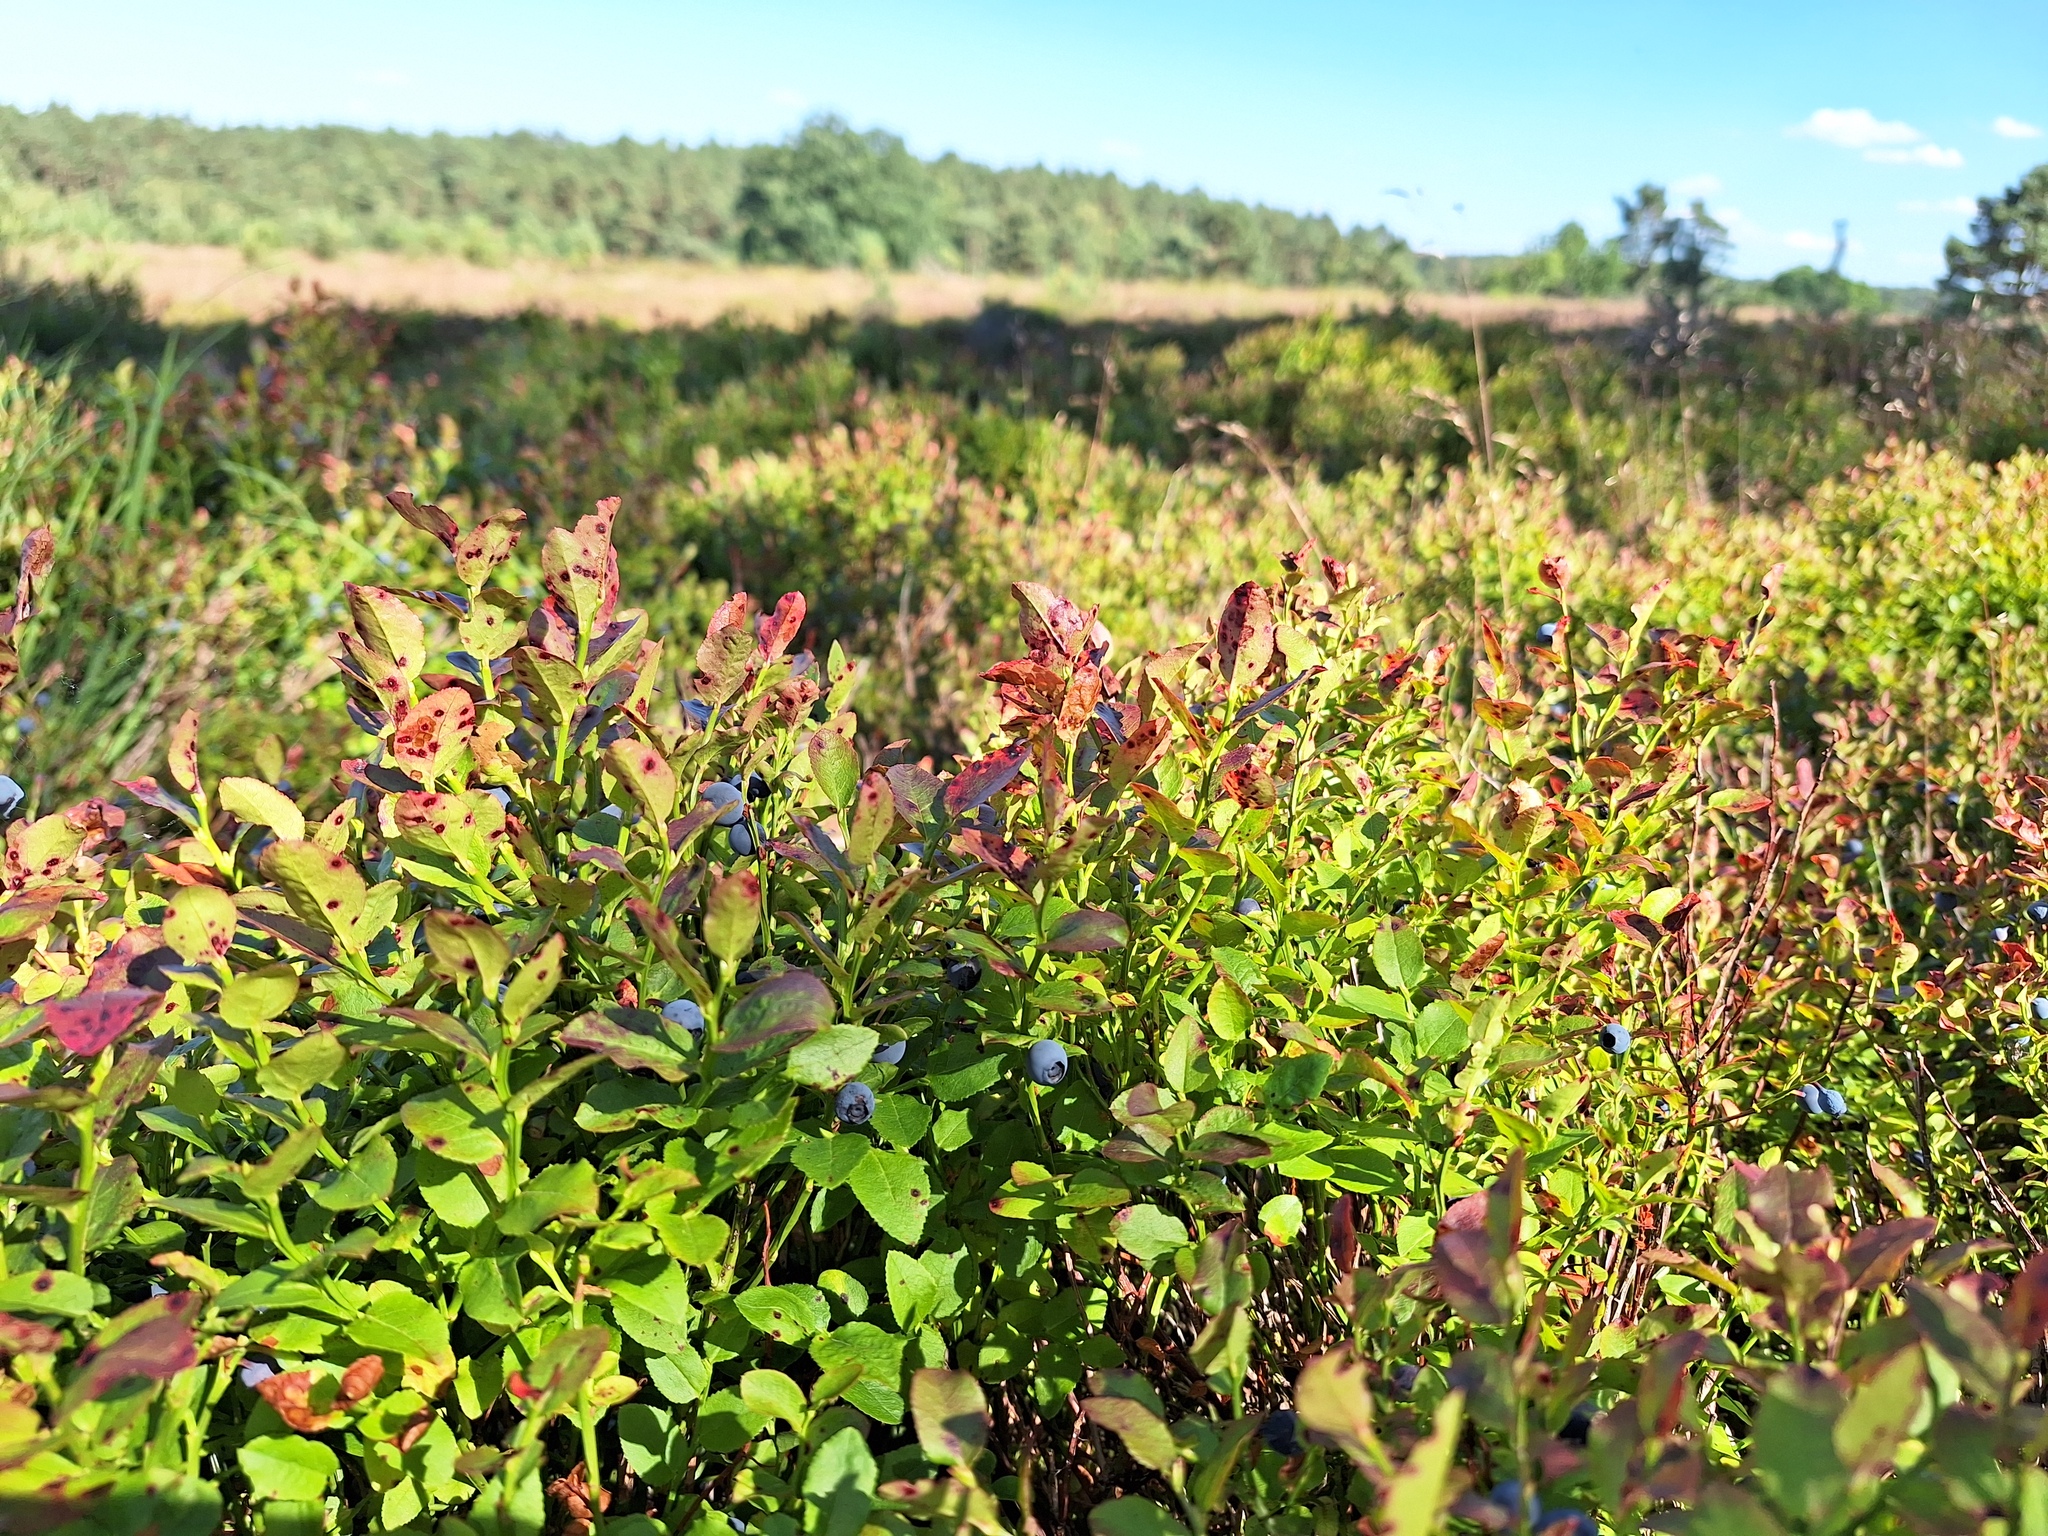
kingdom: Plantae
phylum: Tracheophyta
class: Magnoliopsida
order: Ericales
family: Ericaceae
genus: Vaccinium
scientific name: Vaccinium myrtillus
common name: Bilberry
